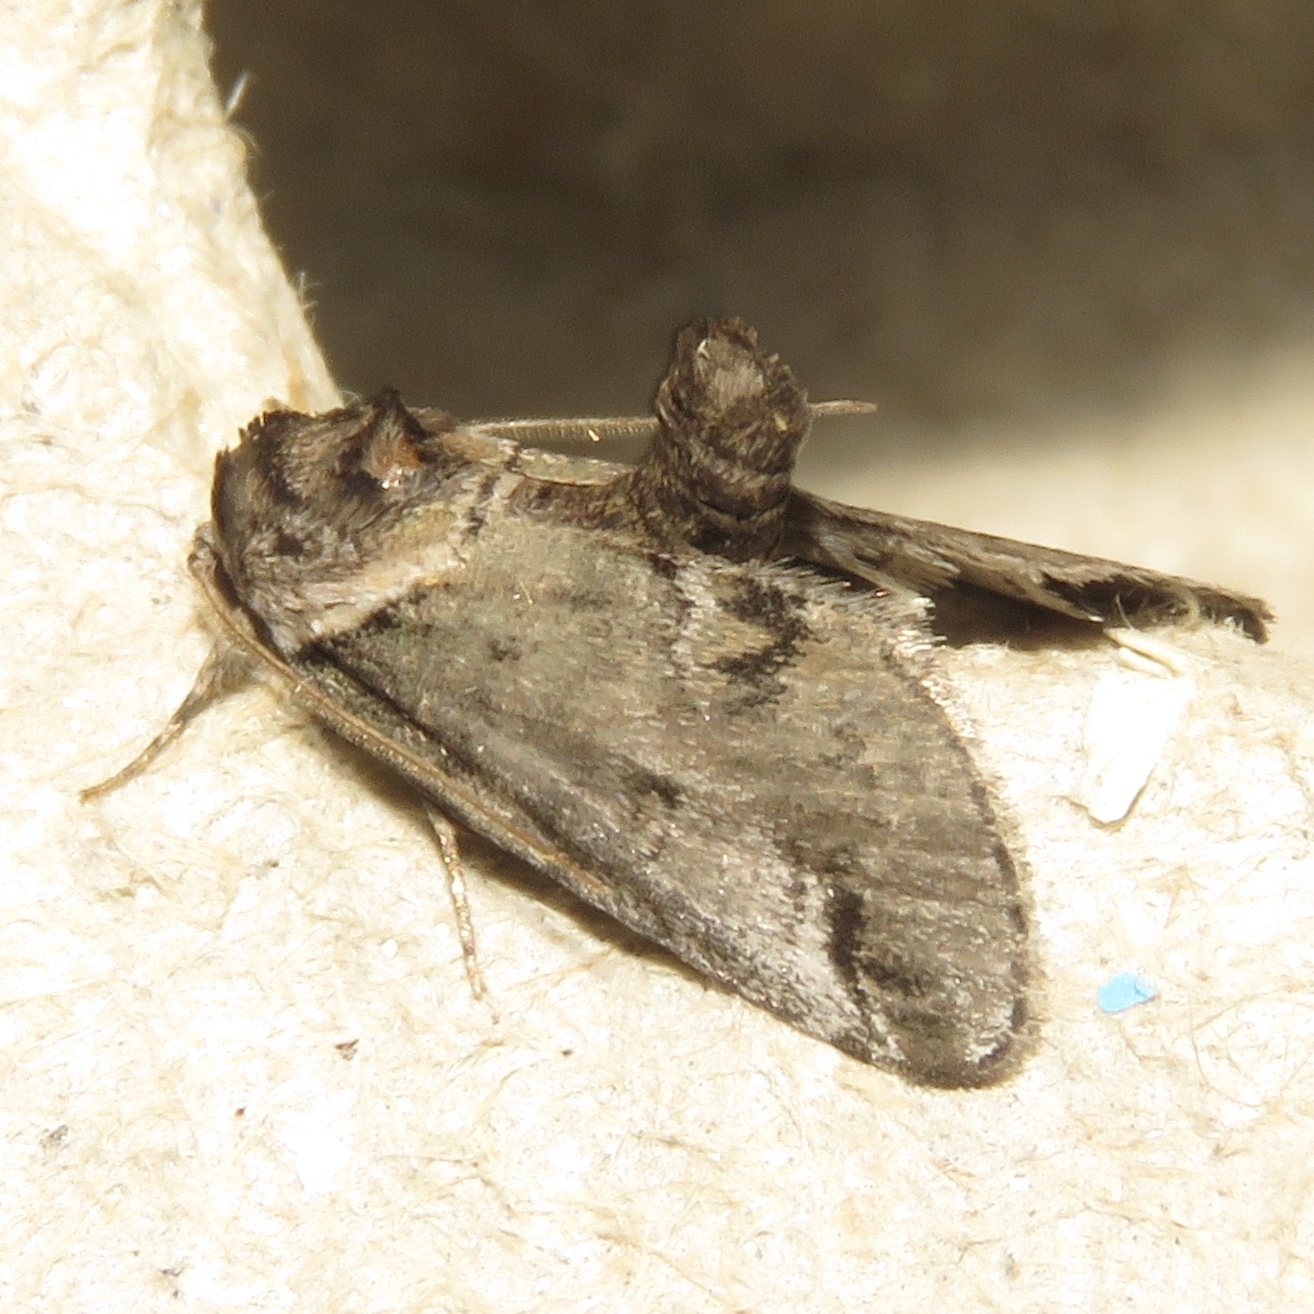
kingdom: Animalia
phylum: Arthropoda
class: Insecta
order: Lepidoptera
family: Nolidae
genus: Baileya
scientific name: Baileya australis
